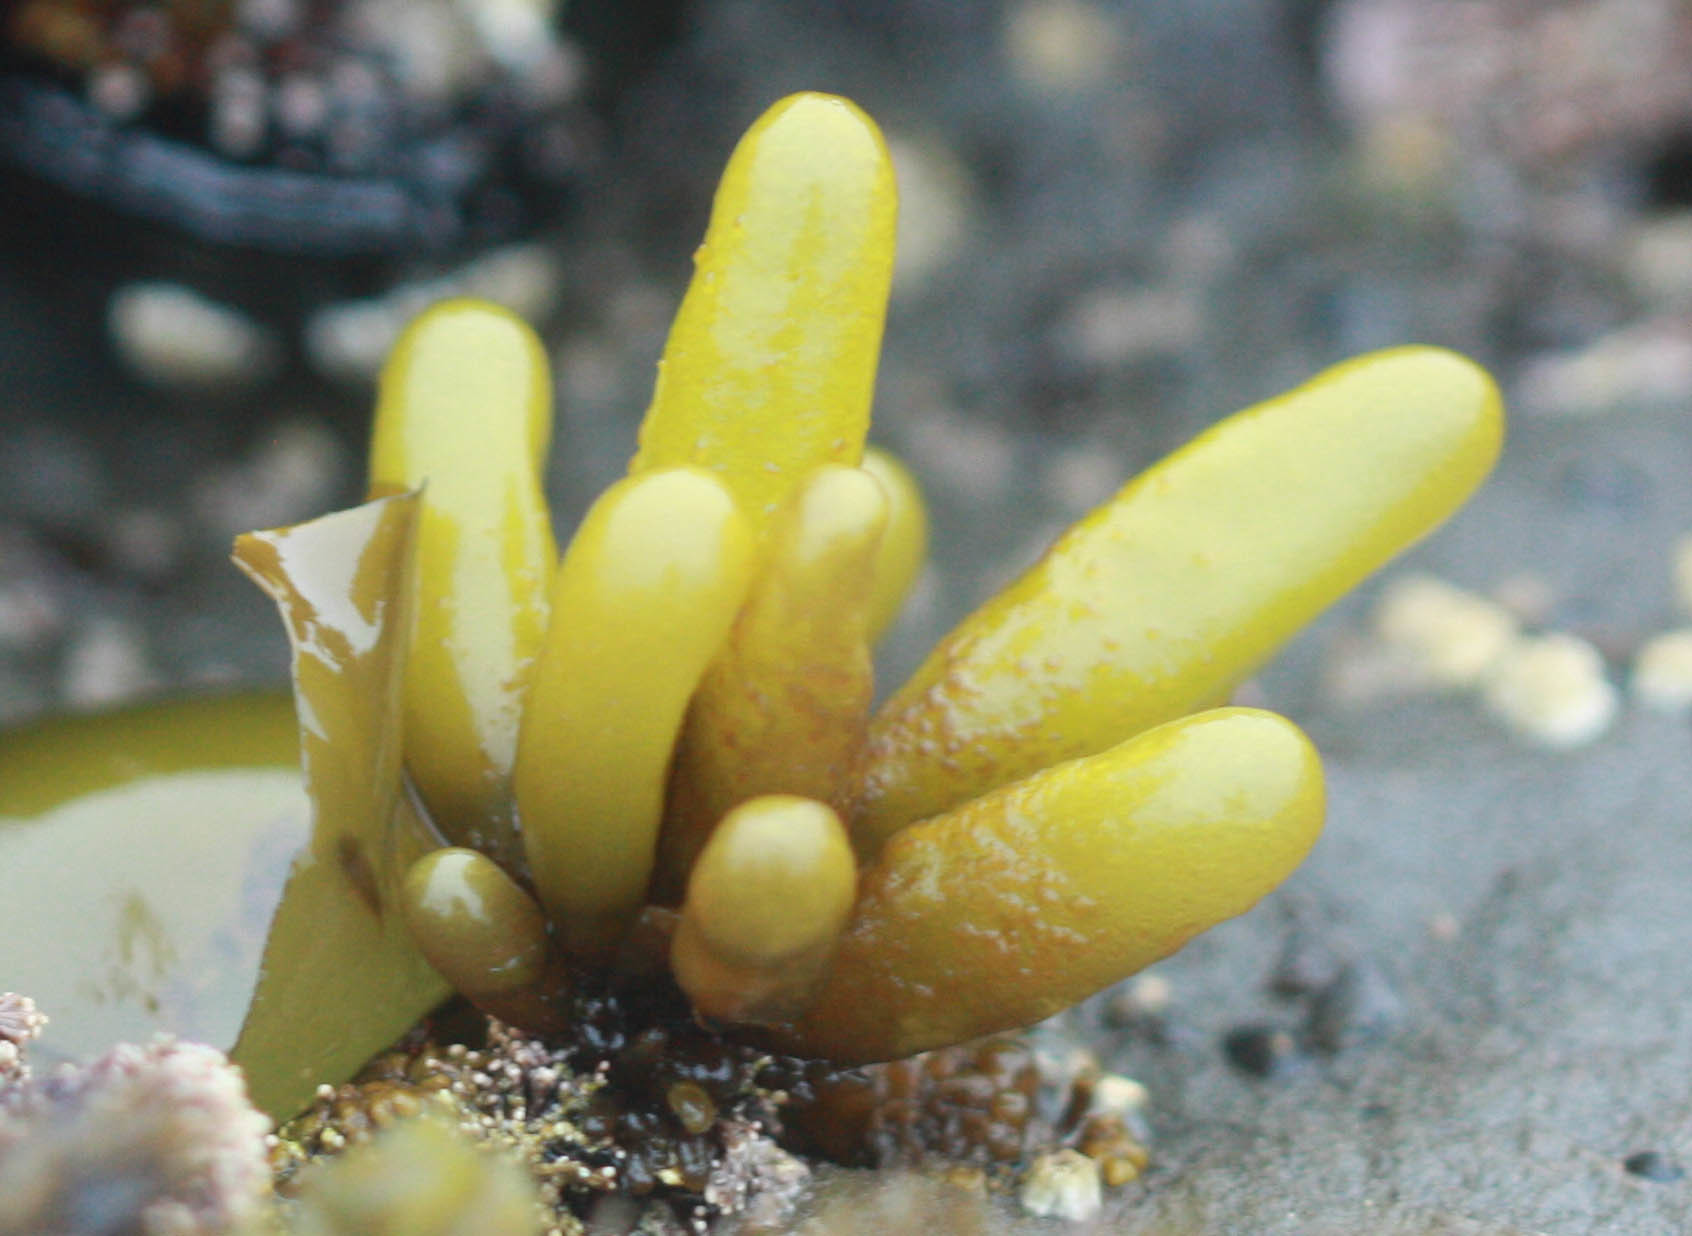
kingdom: Plantae
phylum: Rhodophyta
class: Florideophyceae
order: Palmariales
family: Palmariaceae
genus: Halosaccion
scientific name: Halosaccion glandiforme
